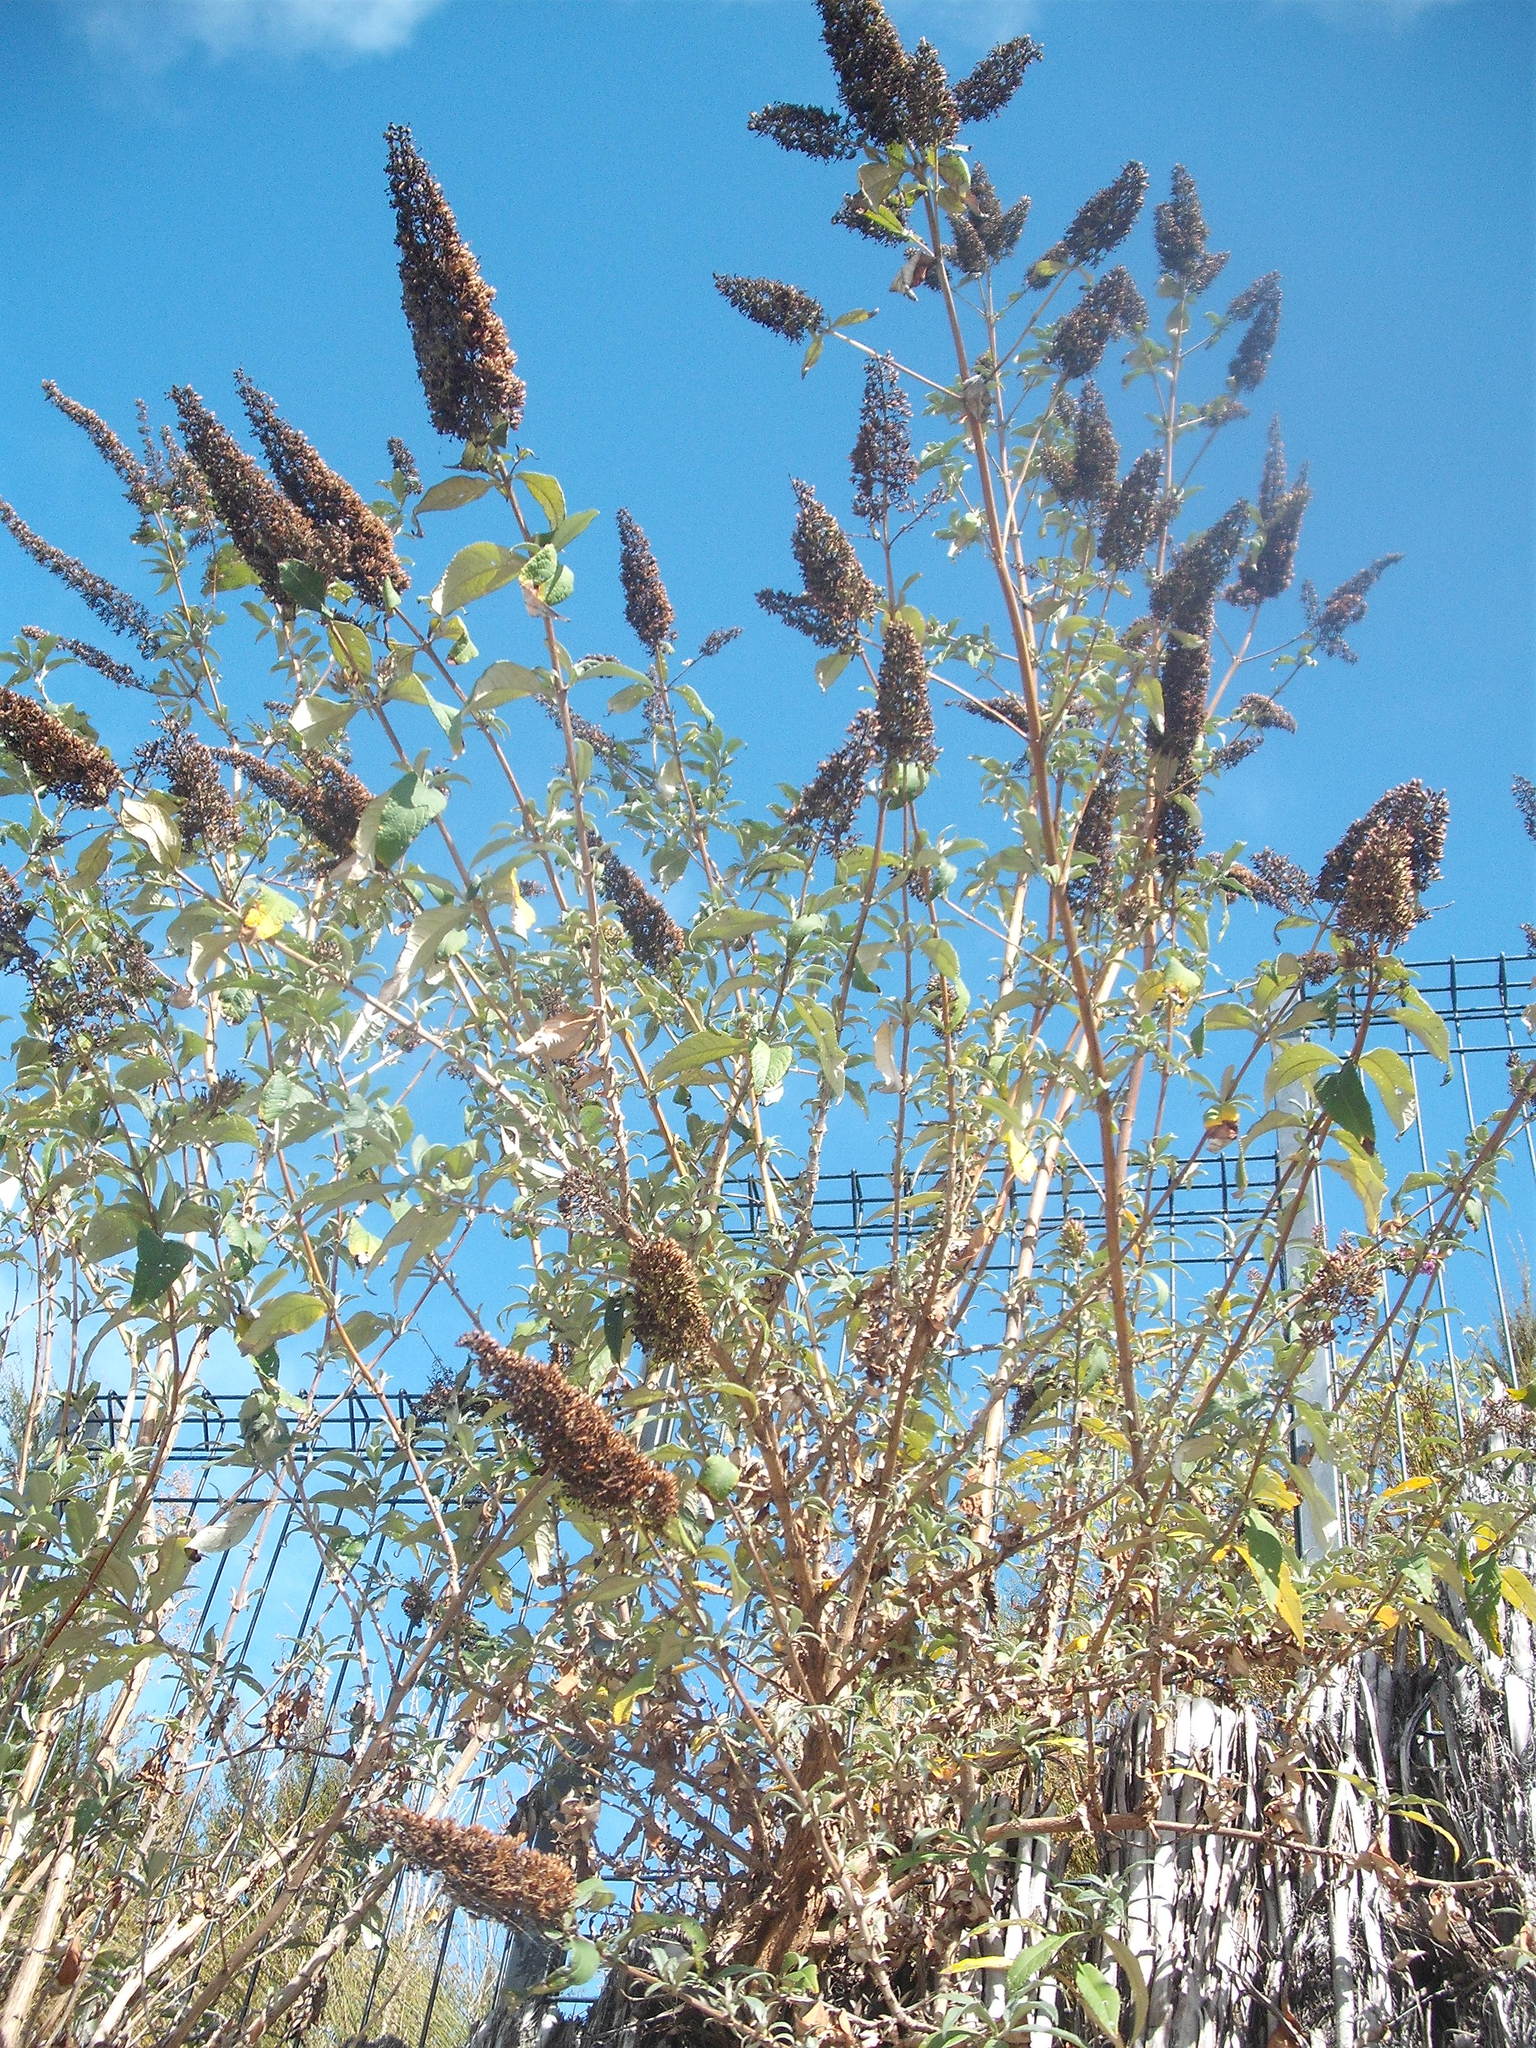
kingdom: Plantae
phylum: Tracheophyta
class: Magnoliopsida
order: Lamiales
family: Scrophulariaceae
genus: Buddleja
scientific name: Buddleja davidii
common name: Butterfly-bush
